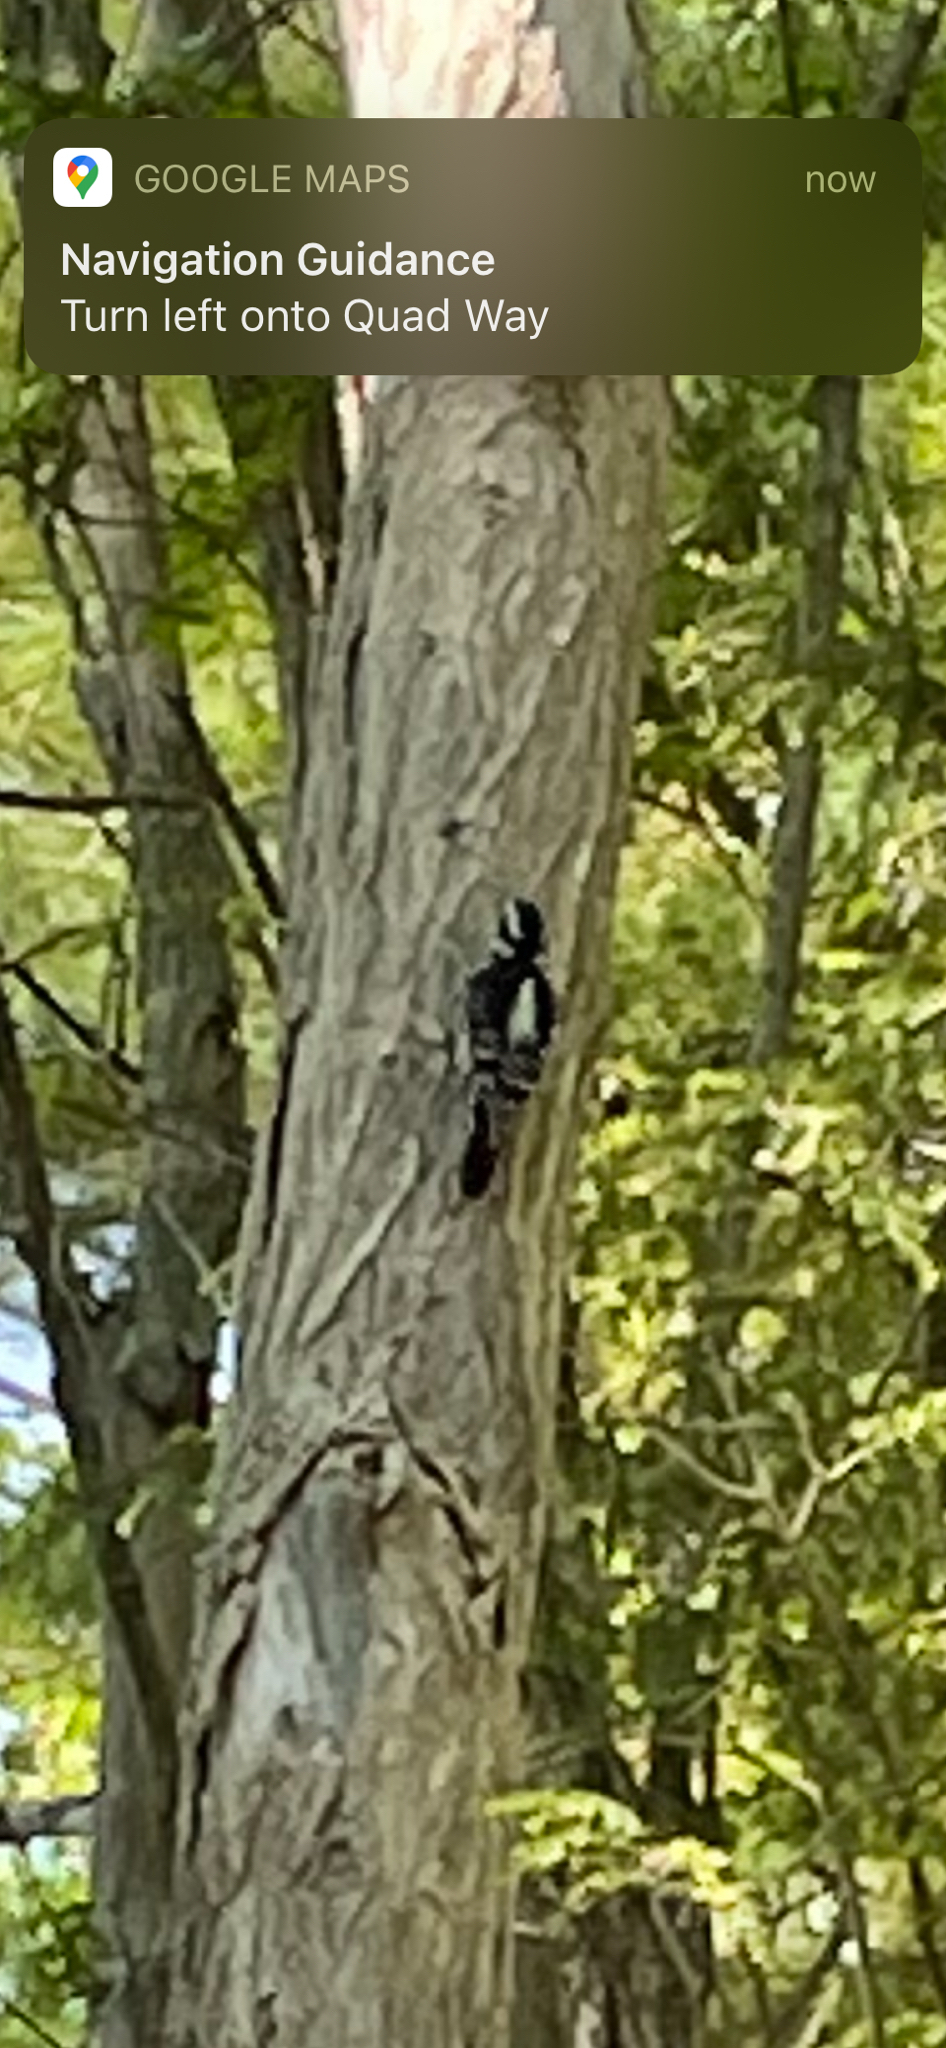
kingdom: Animalia
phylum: Chordata
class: Aves
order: Piciformes
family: Picidae
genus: Dryobates
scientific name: Dryobates pubescens
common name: Downy woodpecker
